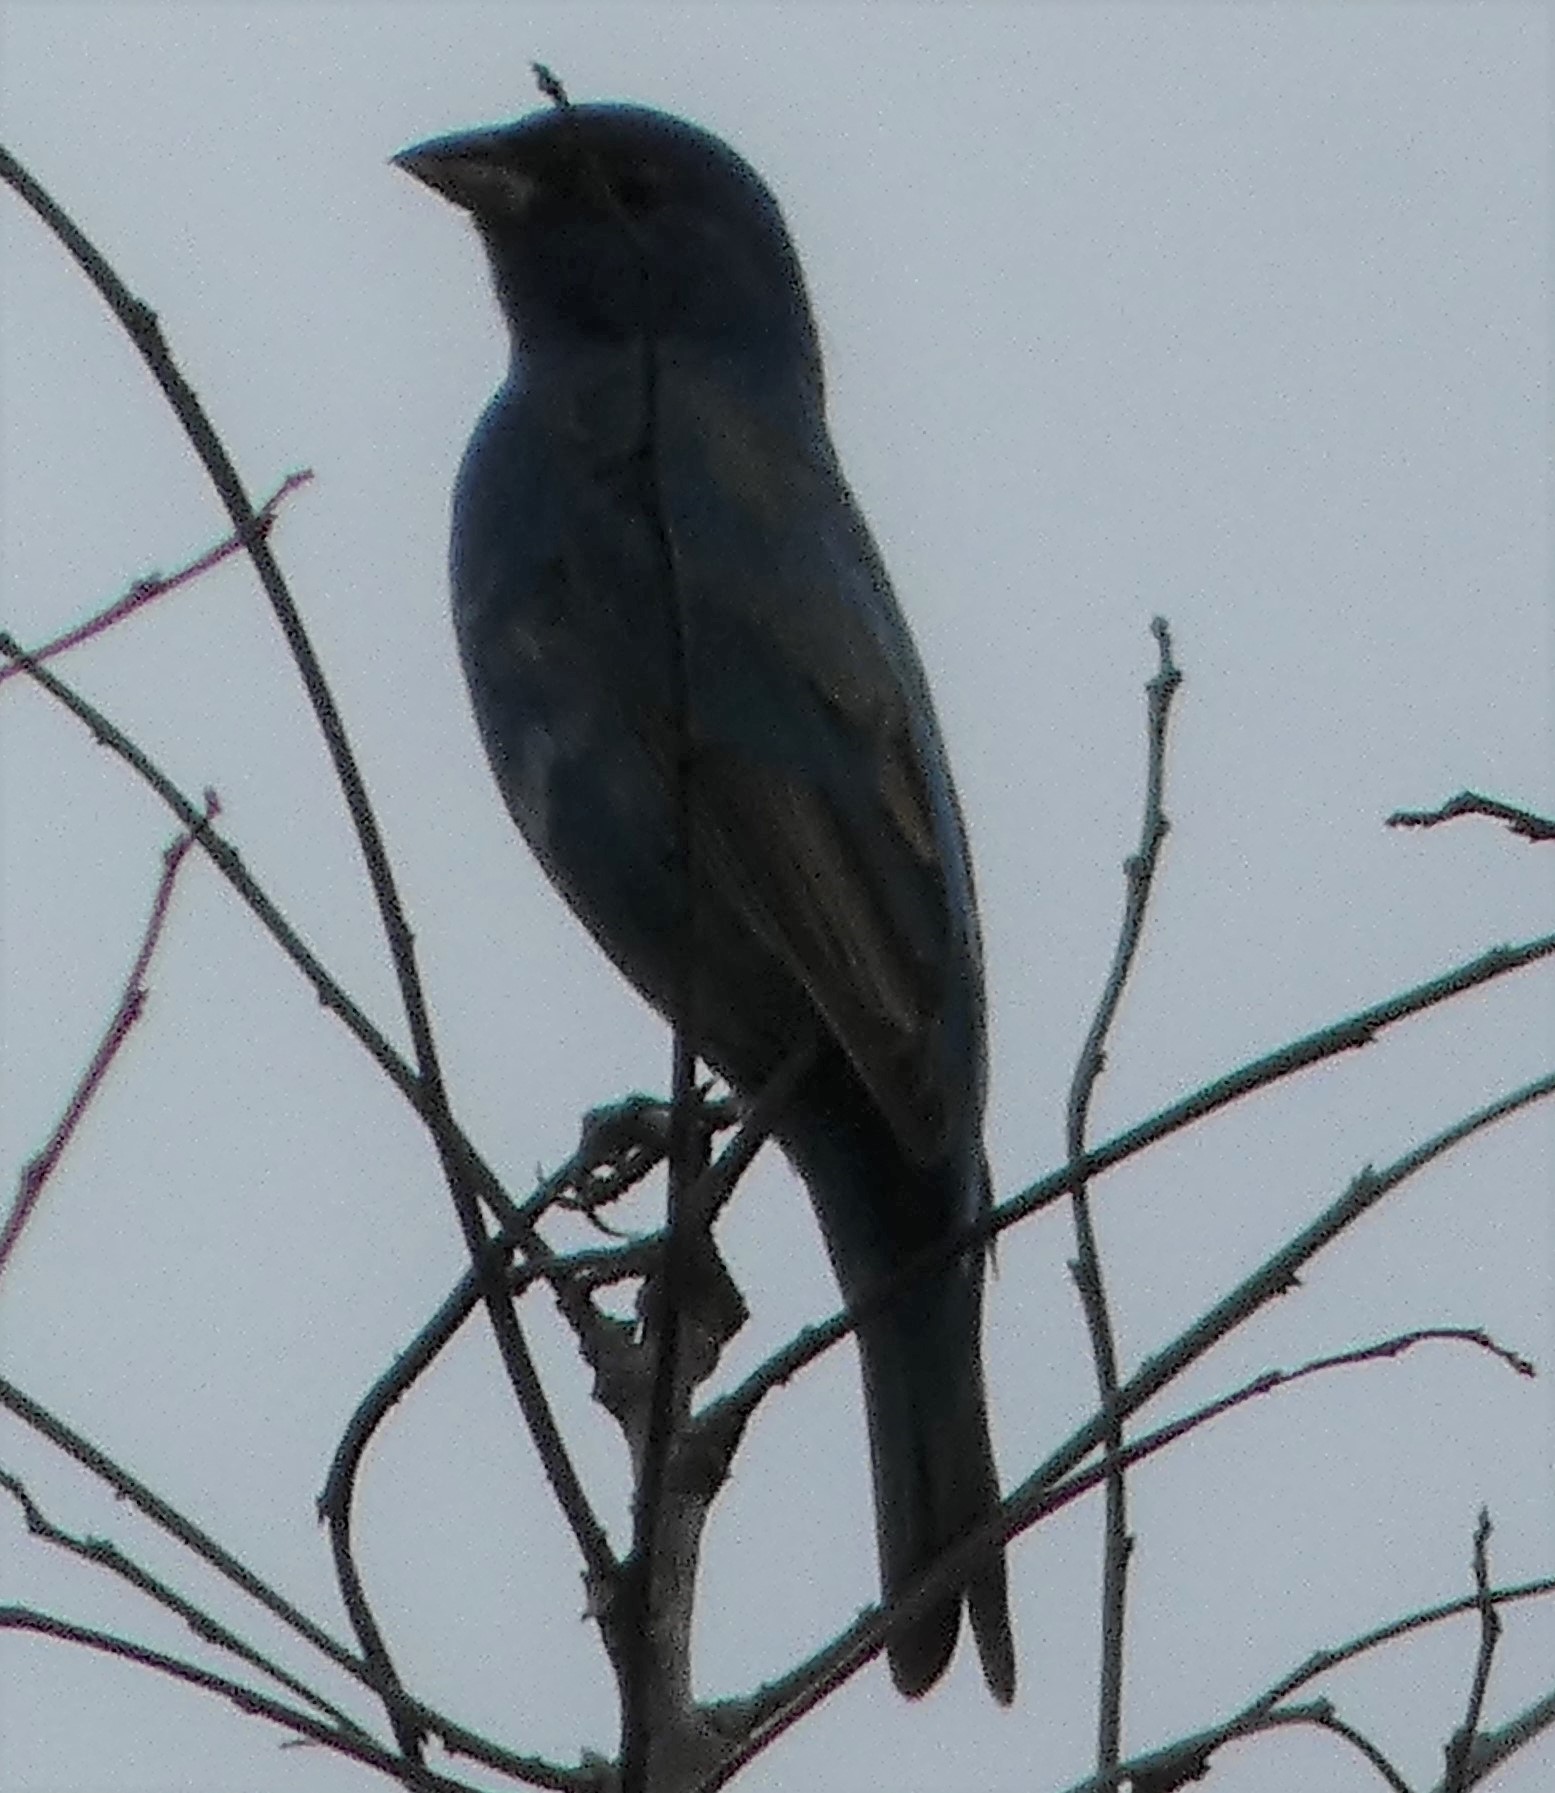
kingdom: Animalia
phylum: Chordata
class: Aves
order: Passeriformes
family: Cardinalidae
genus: Passerina
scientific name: Passerina cyanea
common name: Indigo bunting
